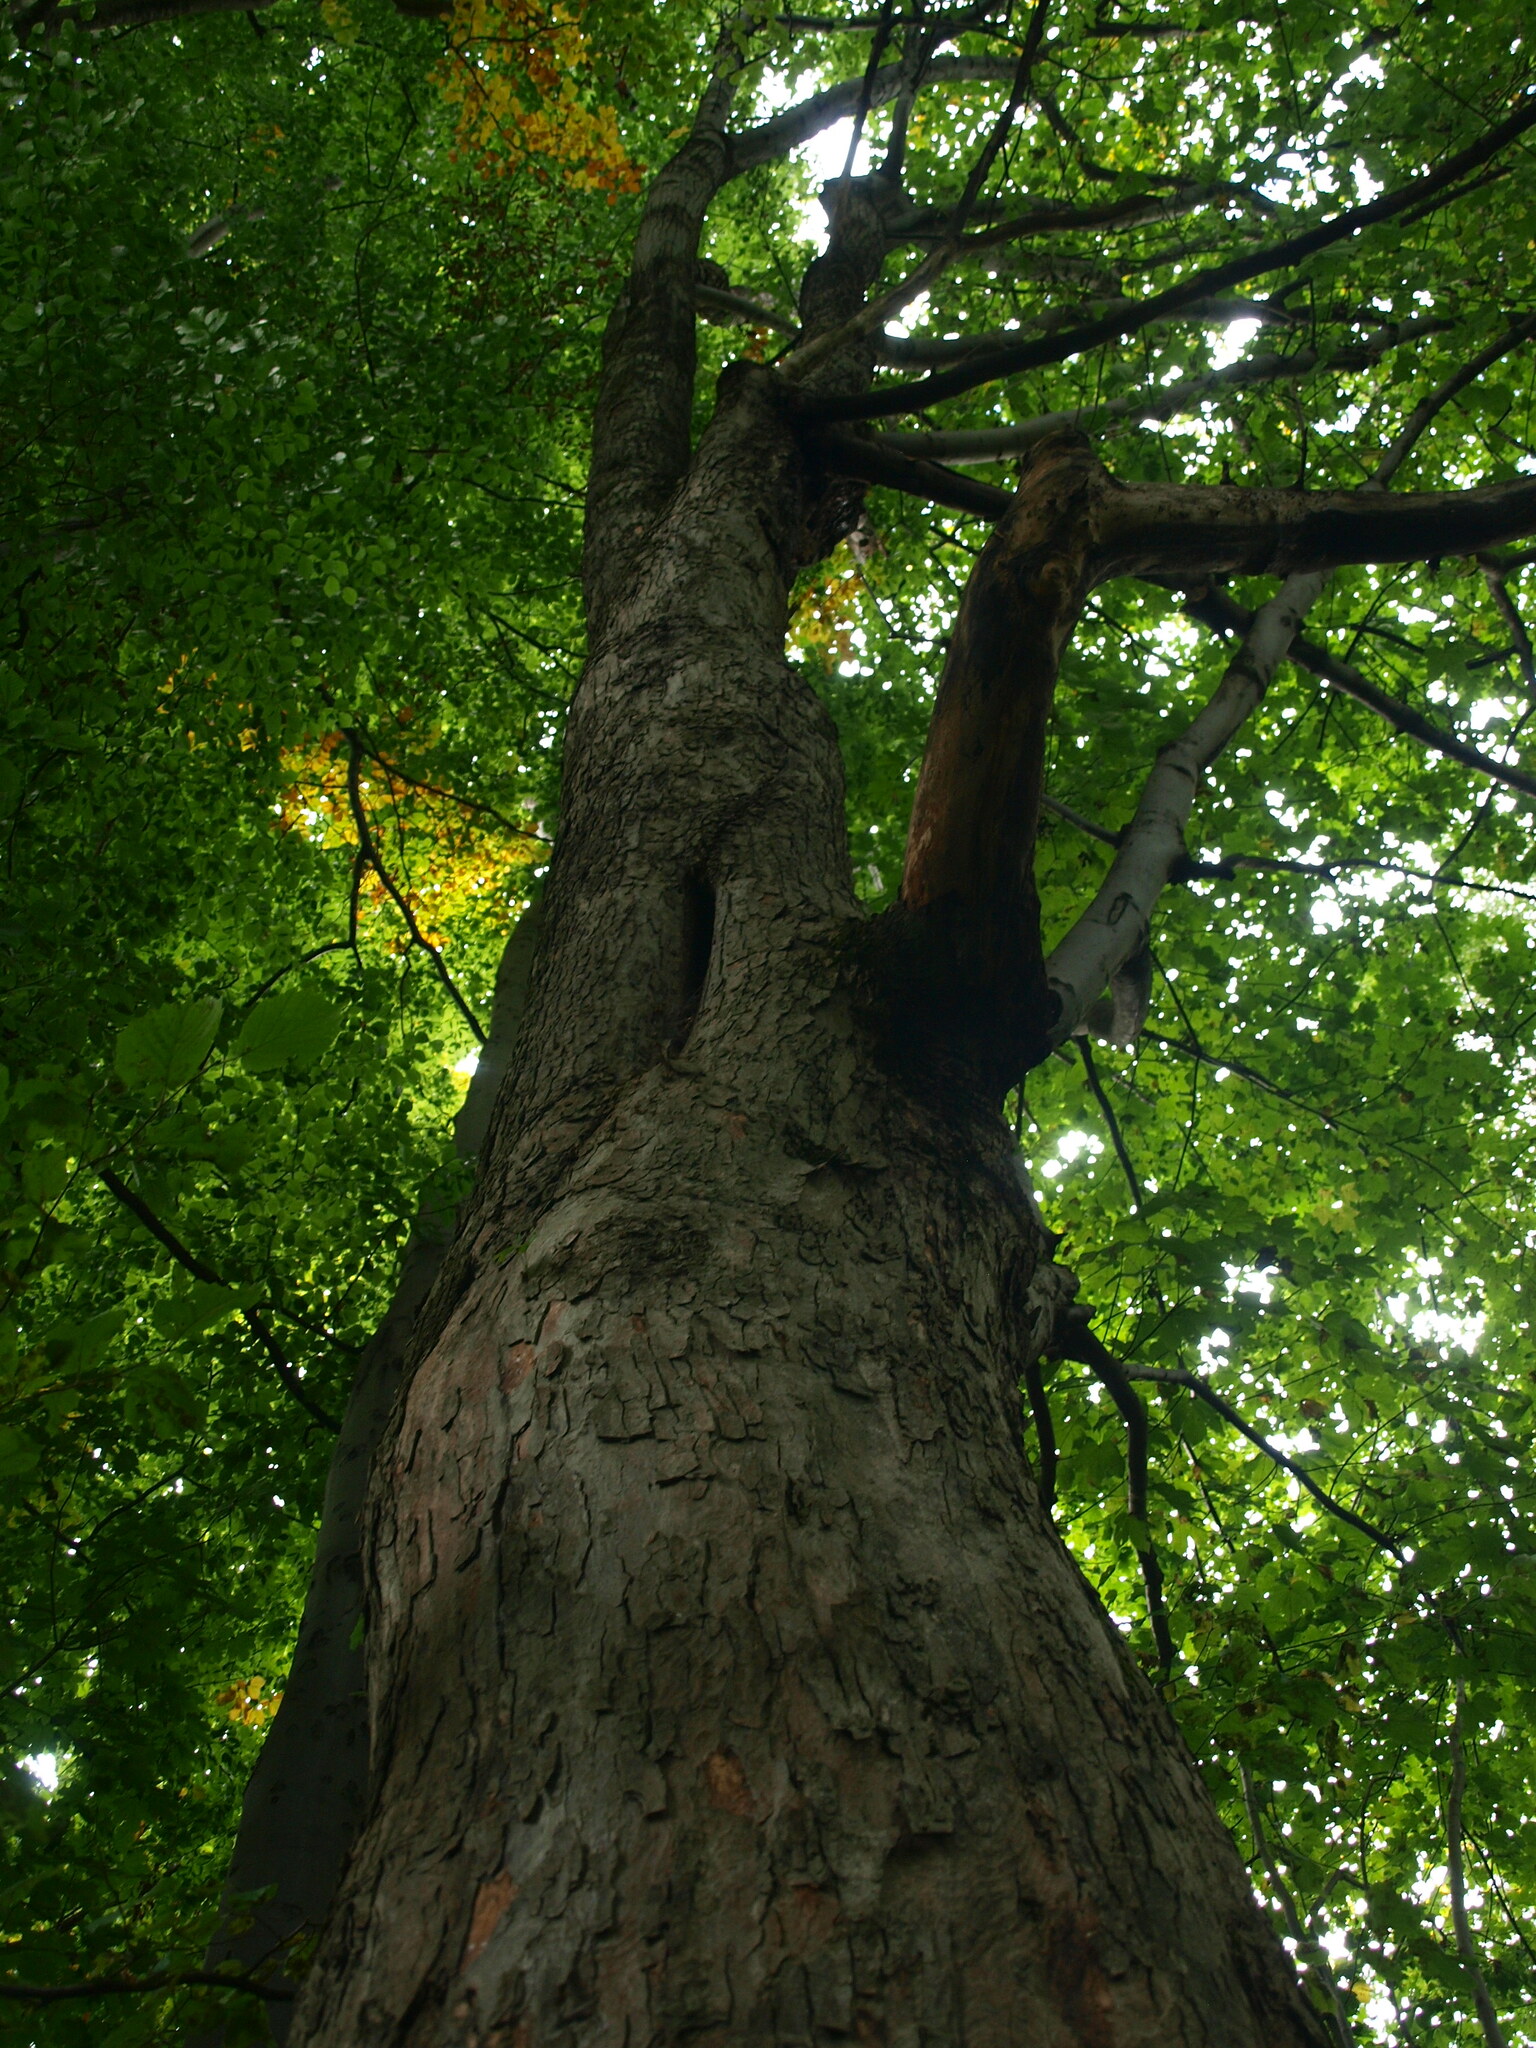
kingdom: Plantae
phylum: Tracheophyta
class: Magnoliopsida
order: Sapindales
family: Sapindaceae
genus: Acer
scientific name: Acer pseudoplatanus
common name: Sycamore
